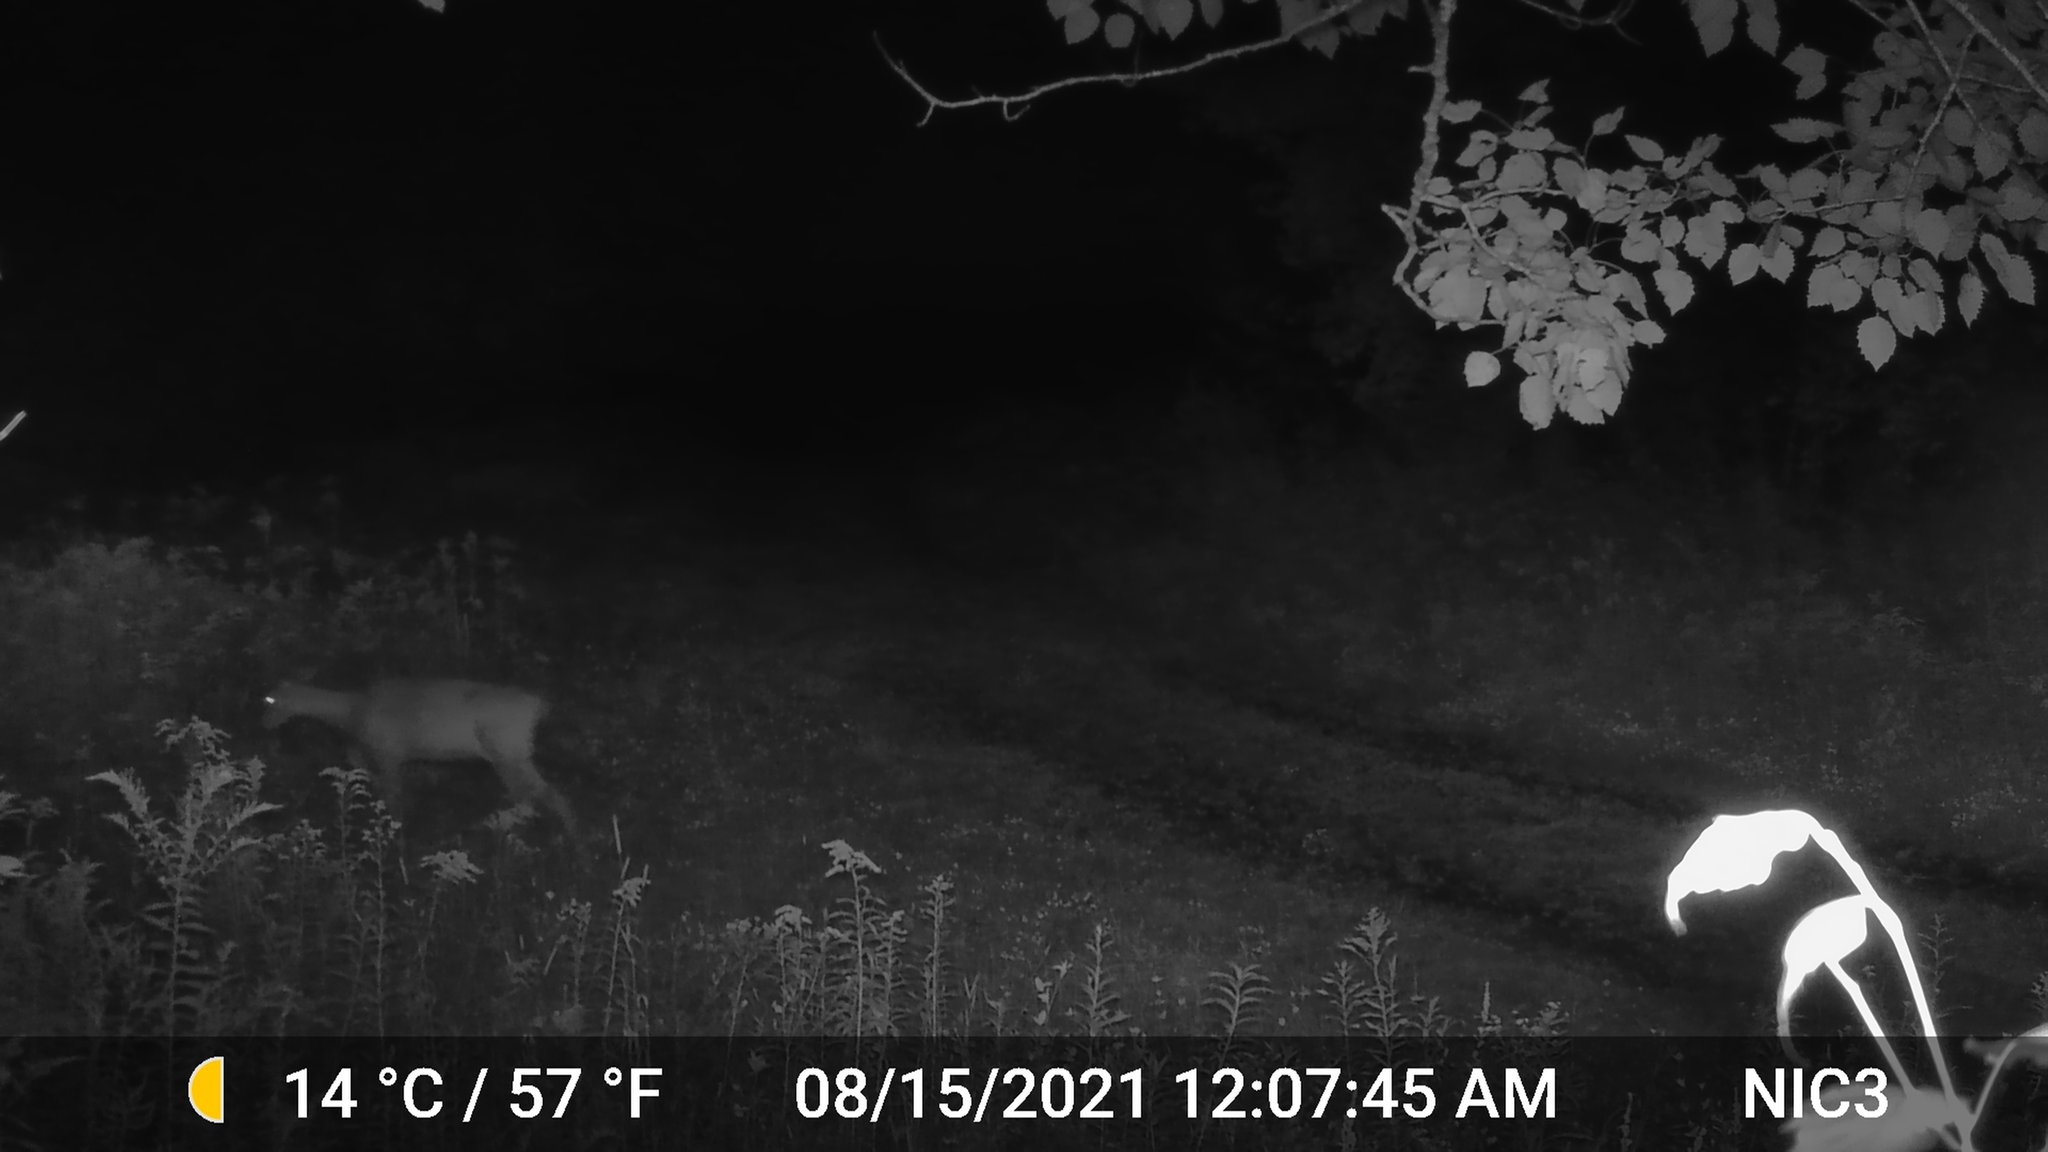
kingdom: Animalia
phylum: Chordata
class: Mammalia
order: Artiodactyla
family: Cervidae
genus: Odocoileus
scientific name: Odocoileus virginianus
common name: White-tailed deer
